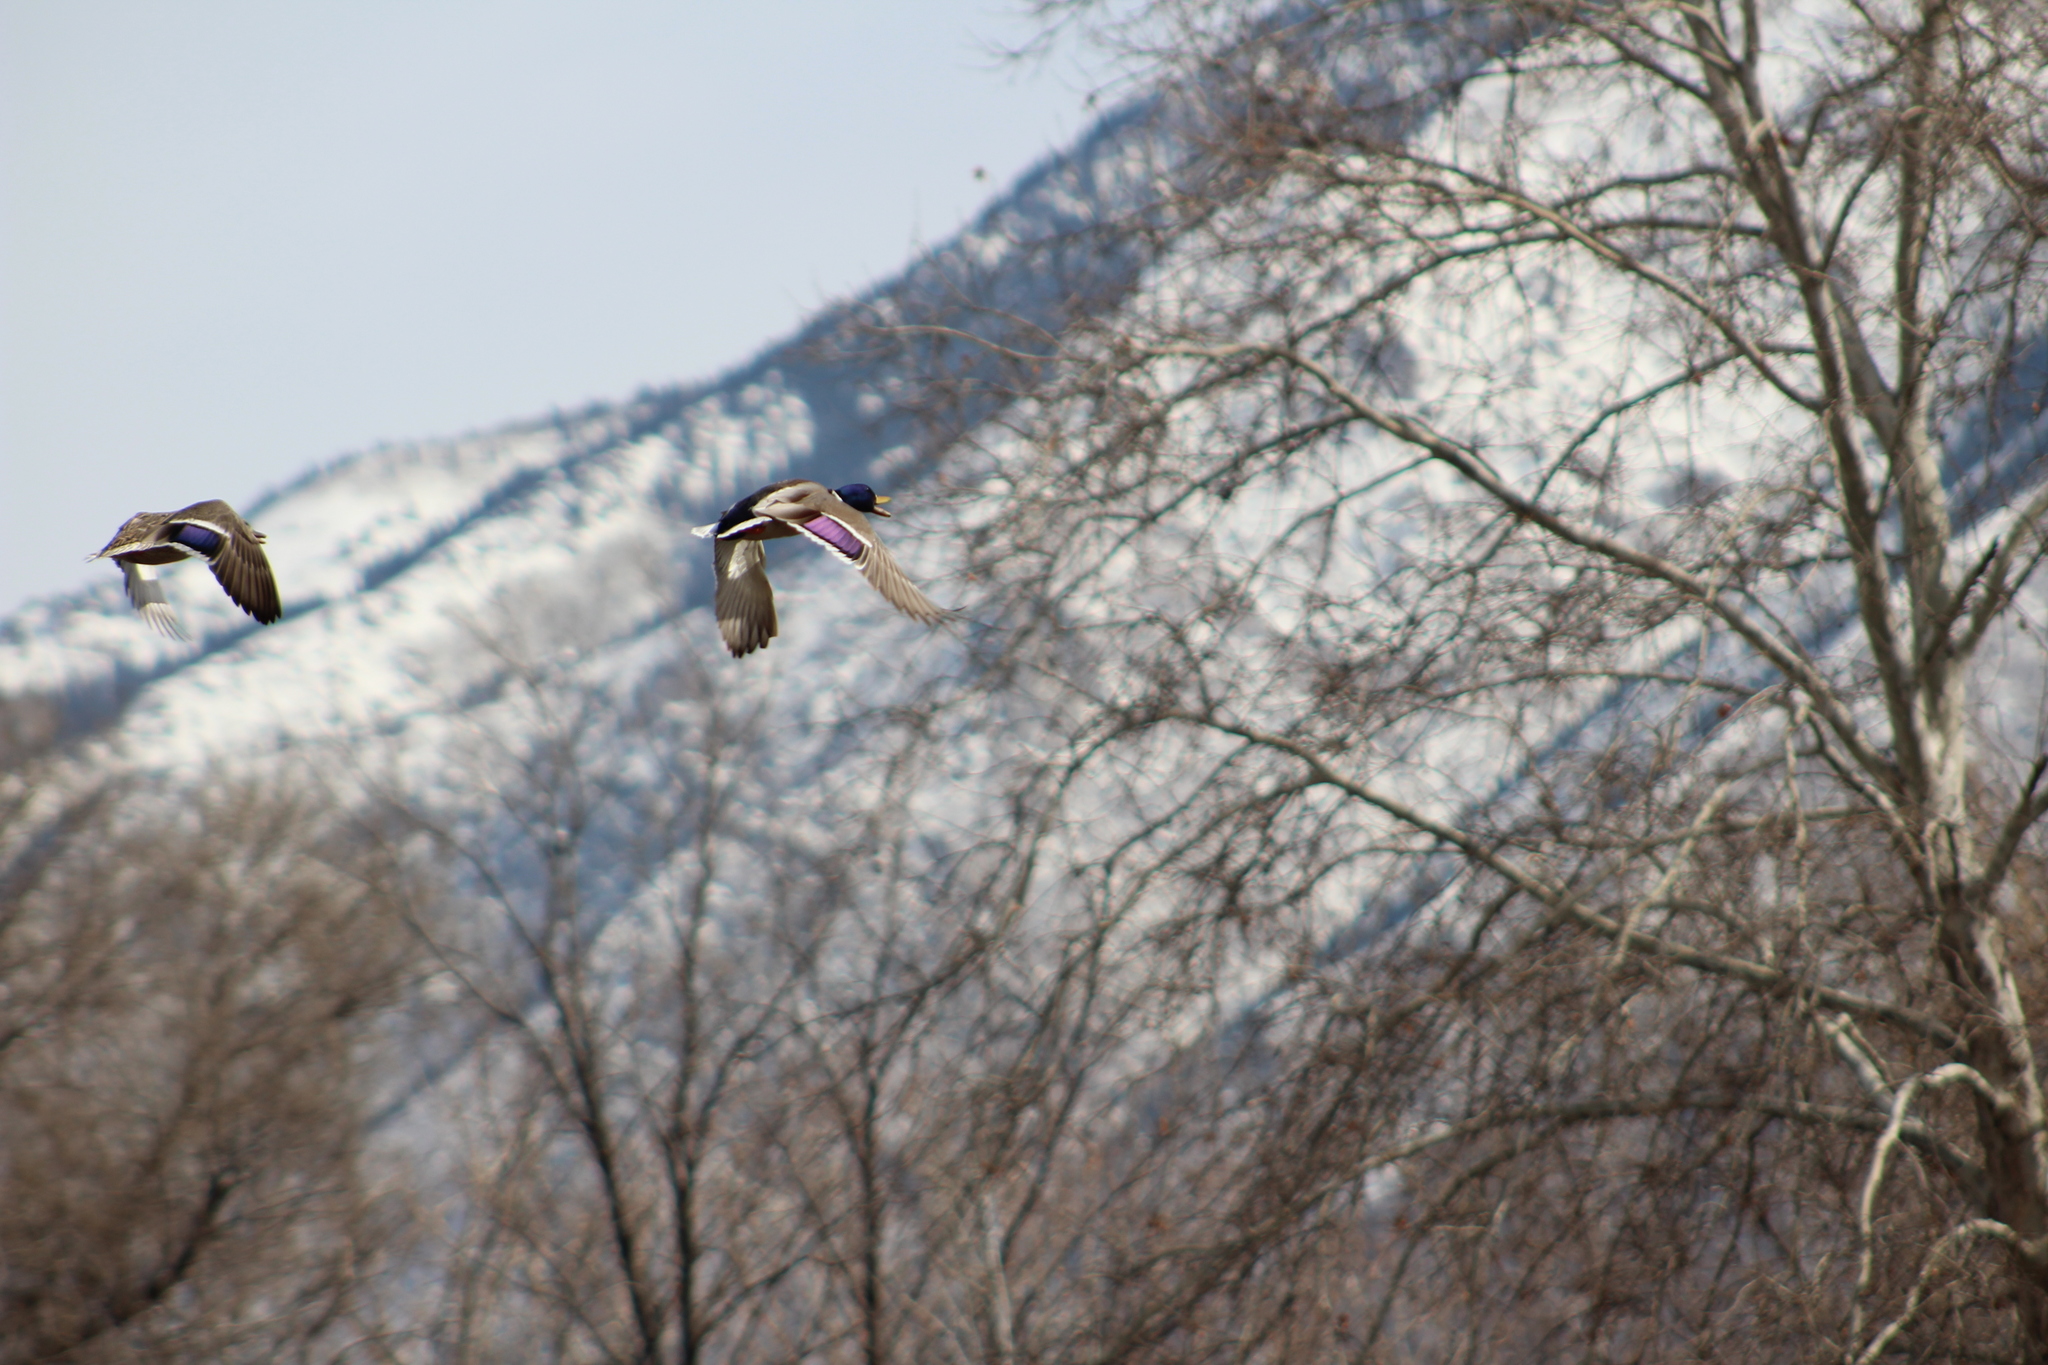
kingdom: Animalia
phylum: Chordata
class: Aves
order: Anseriformes
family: Anatidae
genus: Anas
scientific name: Anas platyrhynchos
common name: Mallard
